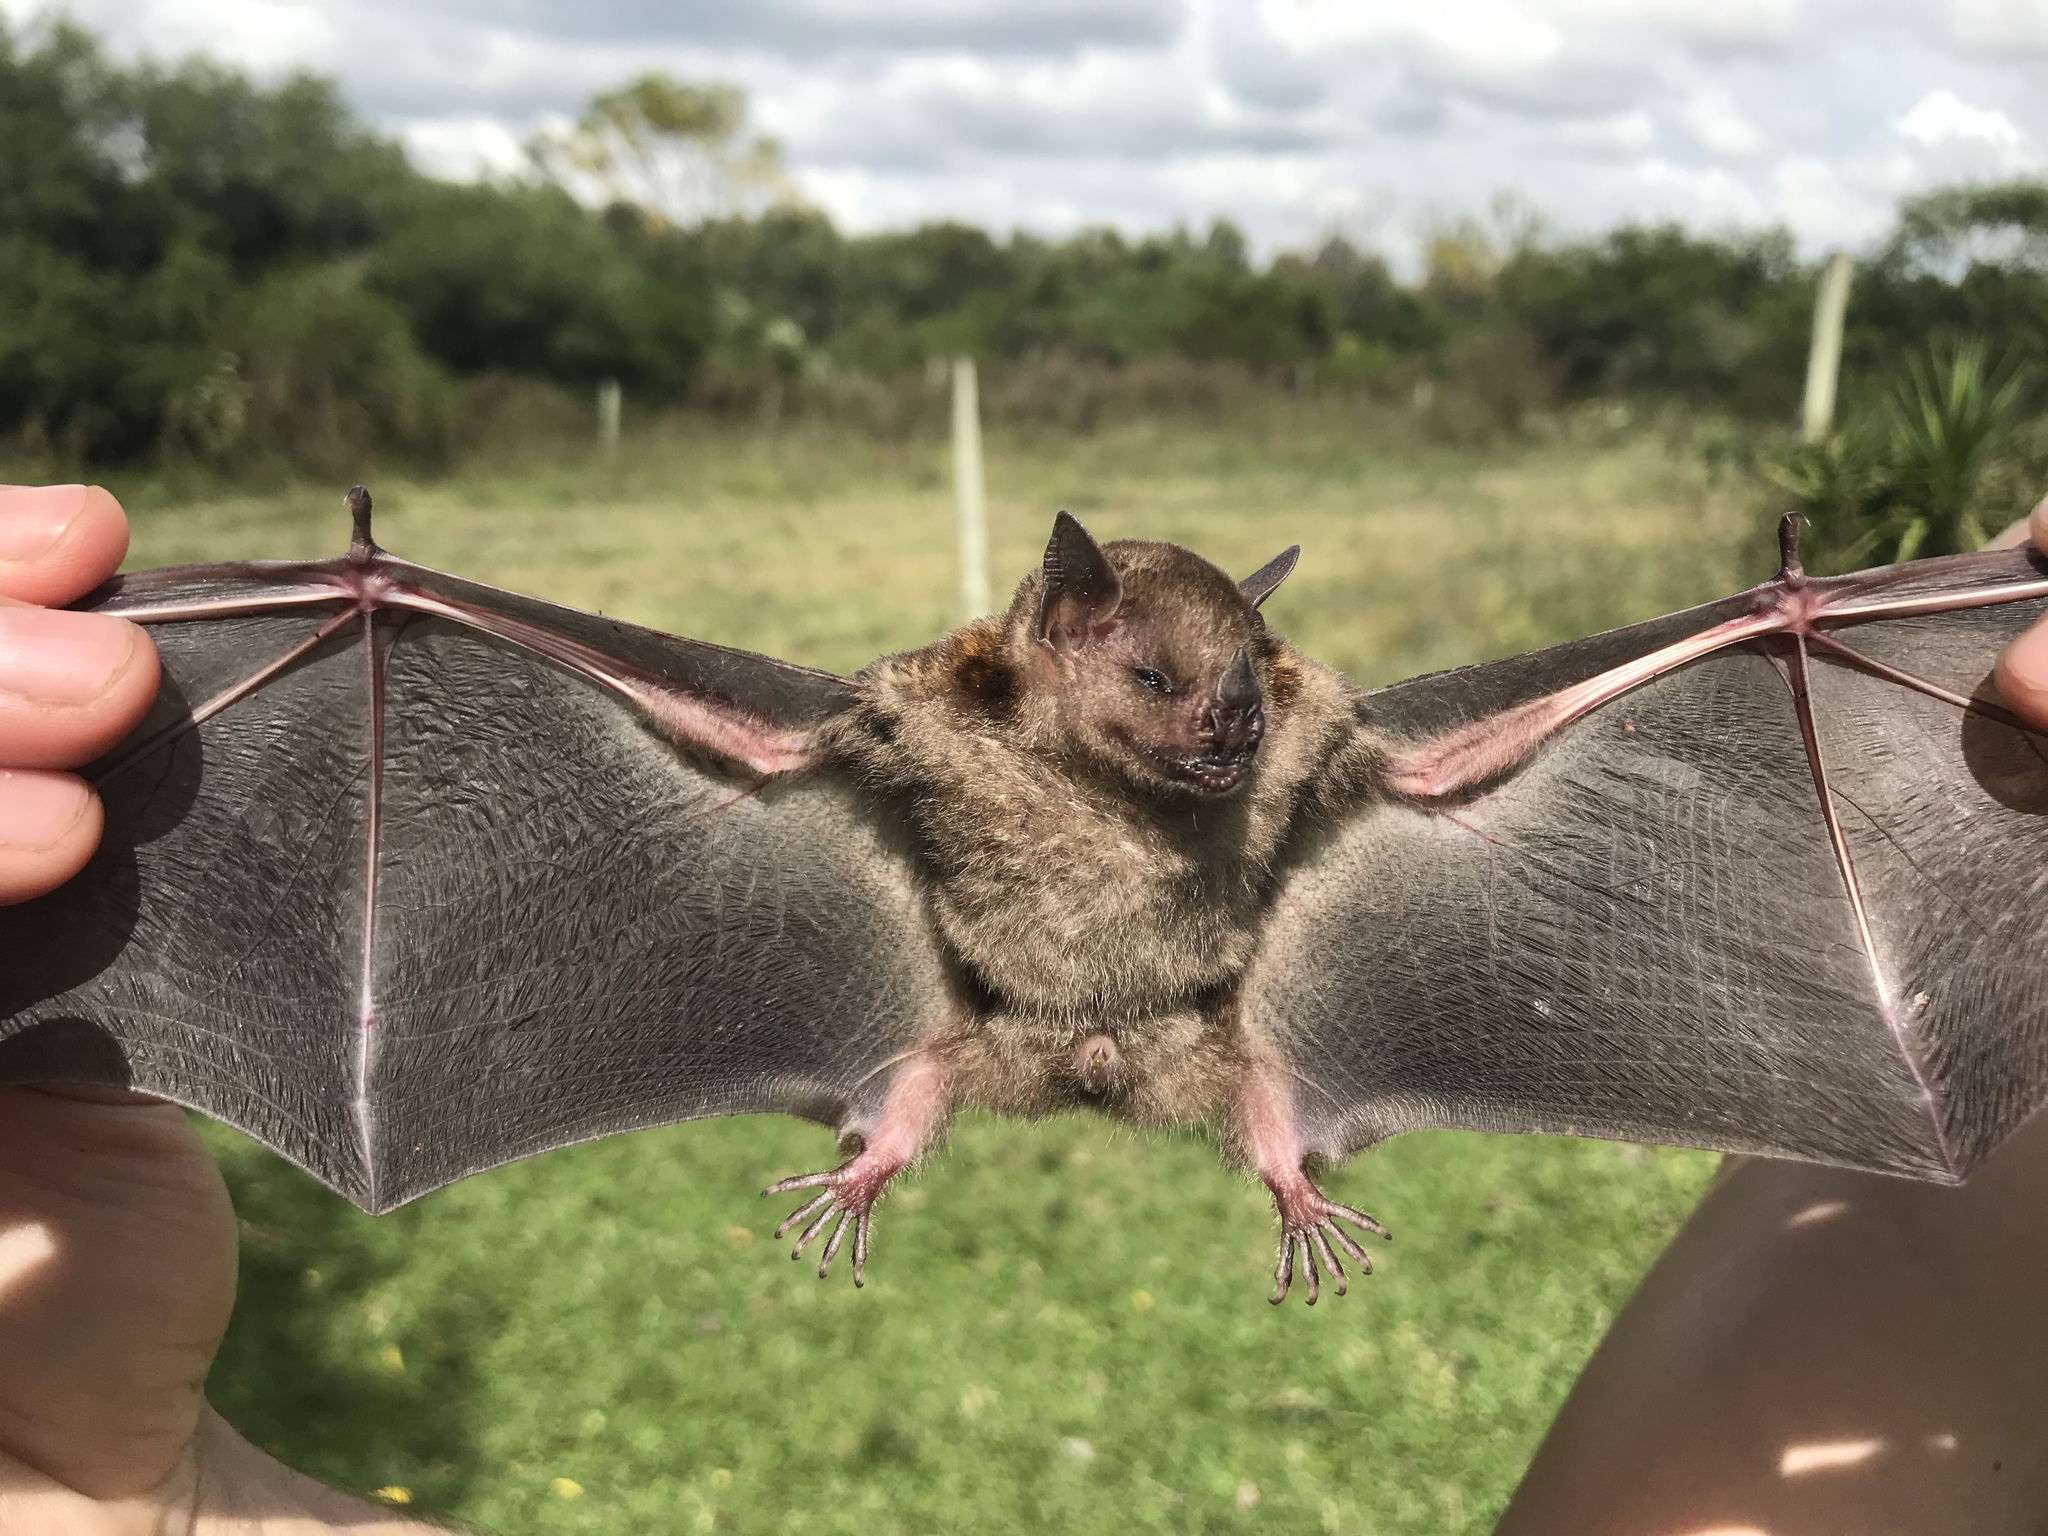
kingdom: Animalia
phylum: Chordata
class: Mammalia
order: Chiroptera
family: Phyllostomidae
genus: Sturnira
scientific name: Sturnira lilium
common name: Little yellow-shouldered bat
